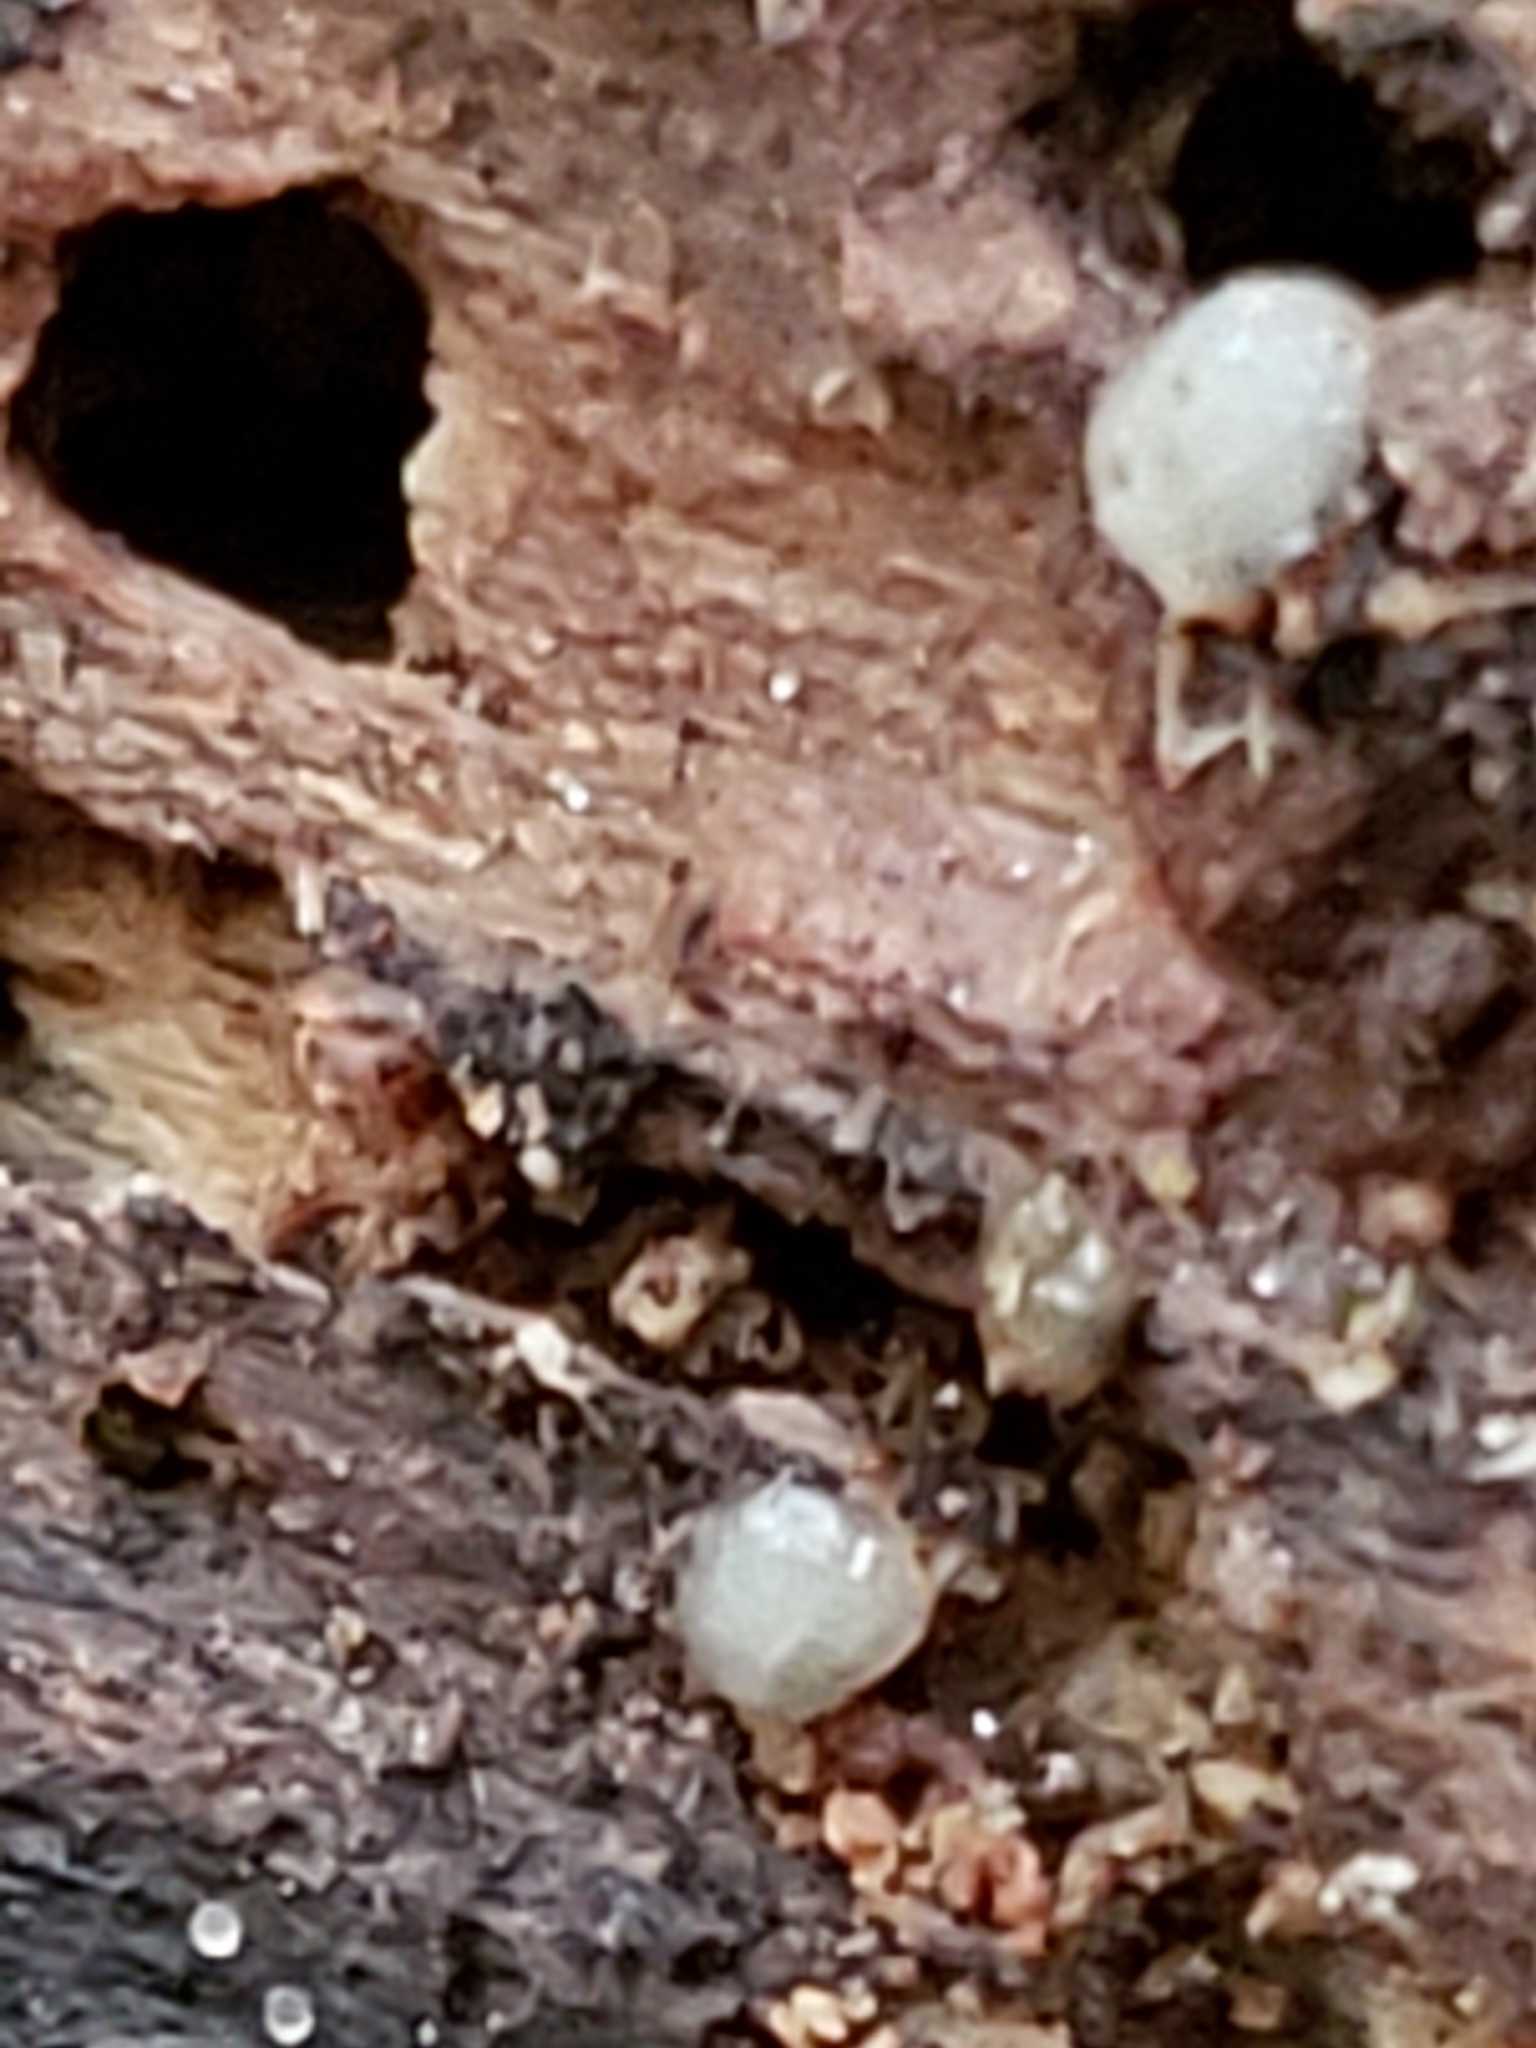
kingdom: Fungi
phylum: Basidiomycota
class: Atractiellomycetes
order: Atractiellales
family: Phleogenaceae
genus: Helicogloea
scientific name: Helicogloea compressa
